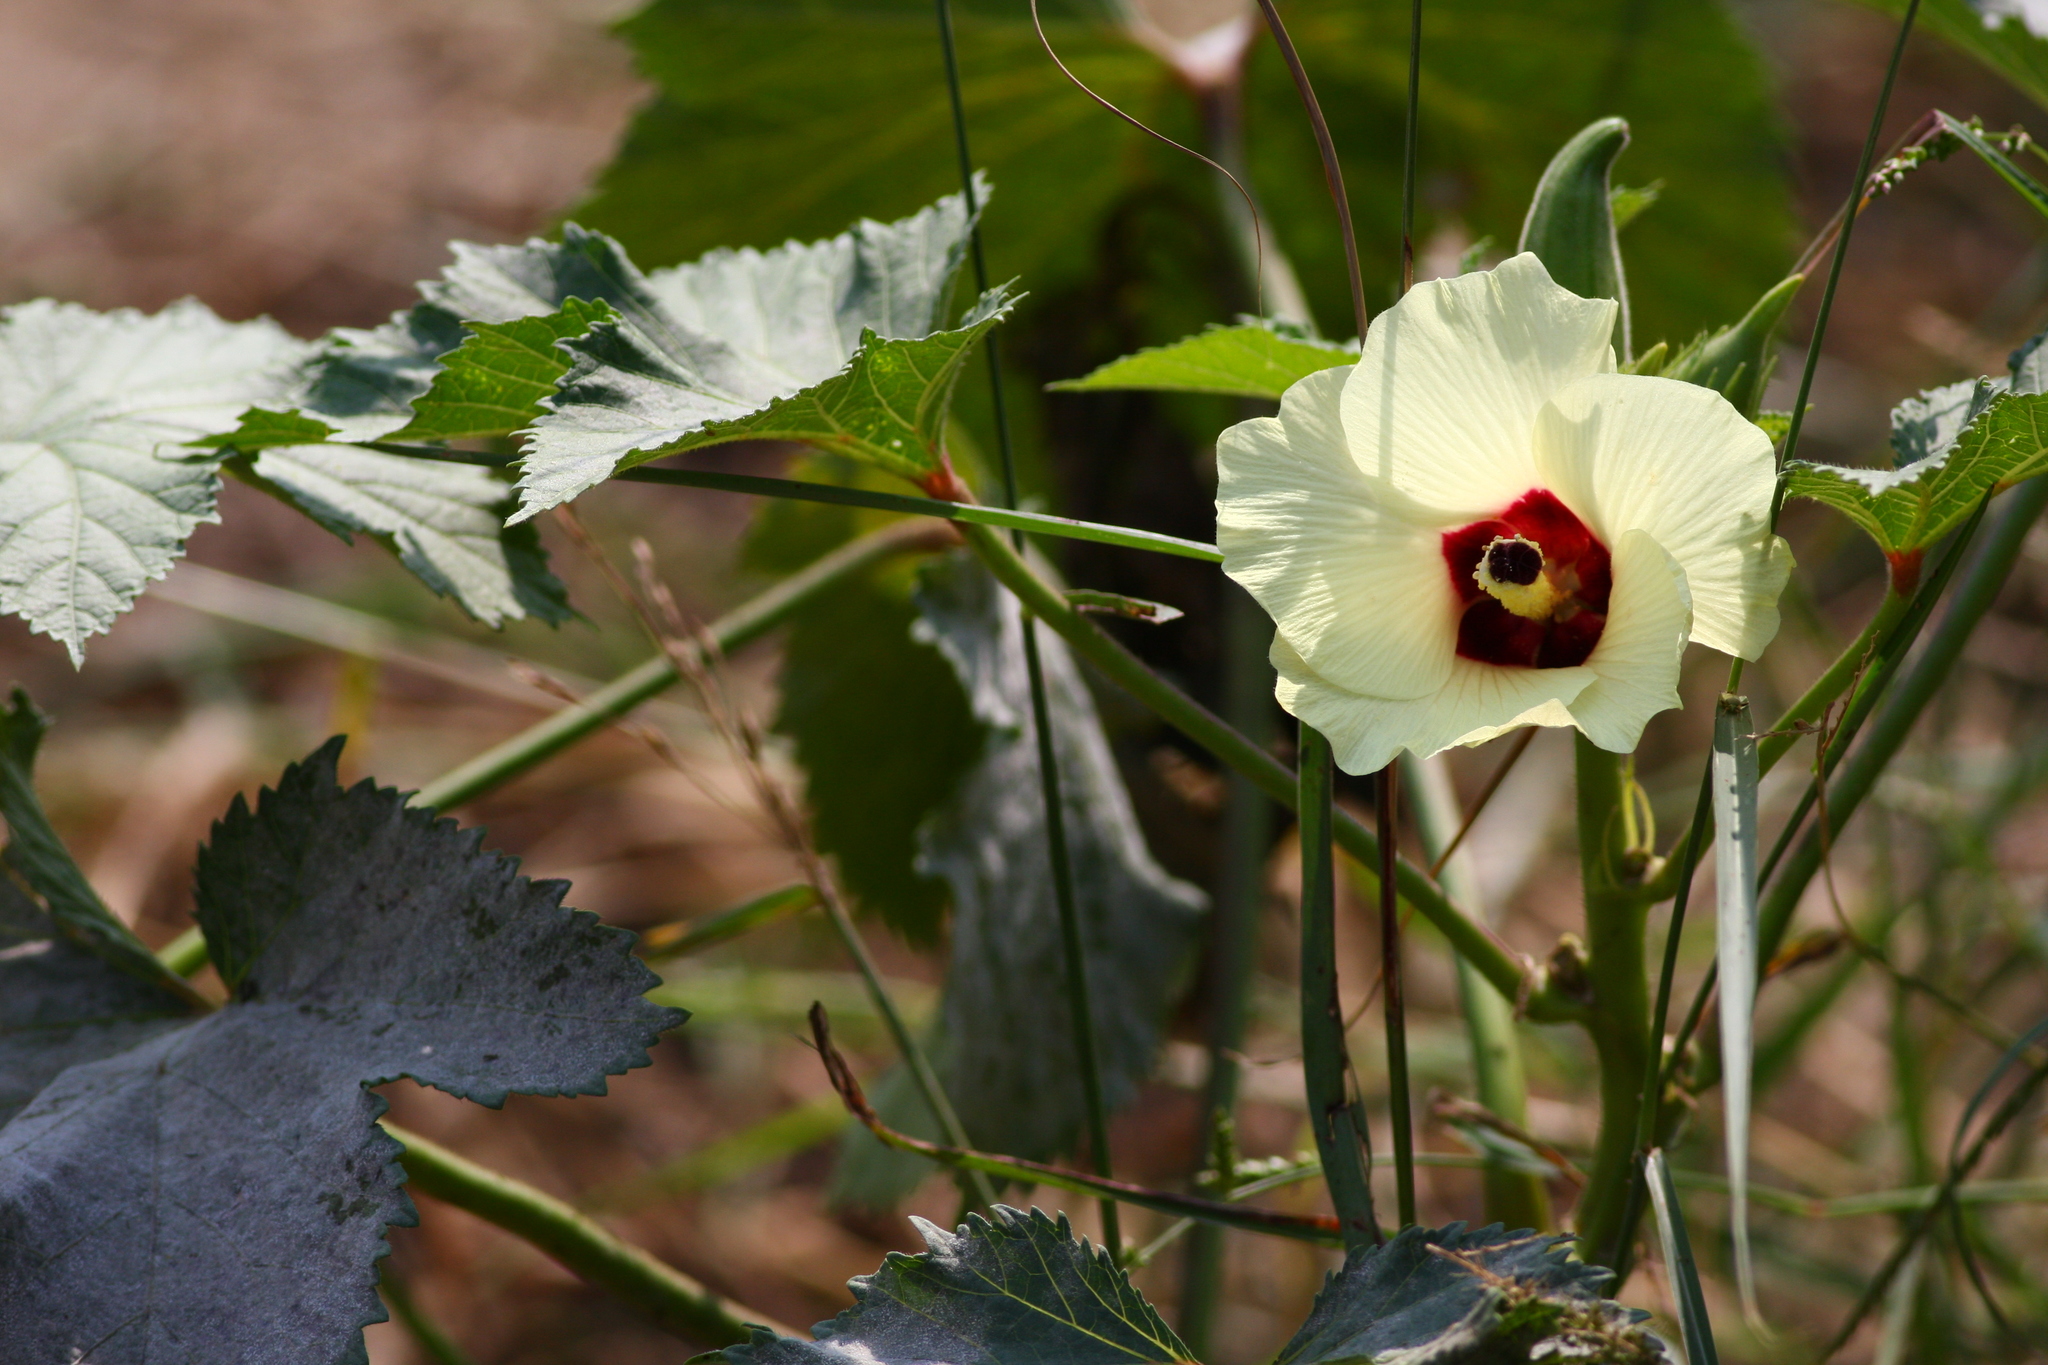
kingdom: Plantae
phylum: Tracheophyta
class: Magnoliopsida
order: Malvales
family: Malvaceae
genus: Abelmoschus
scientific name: Abelmoschus esculentus
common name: Okra
